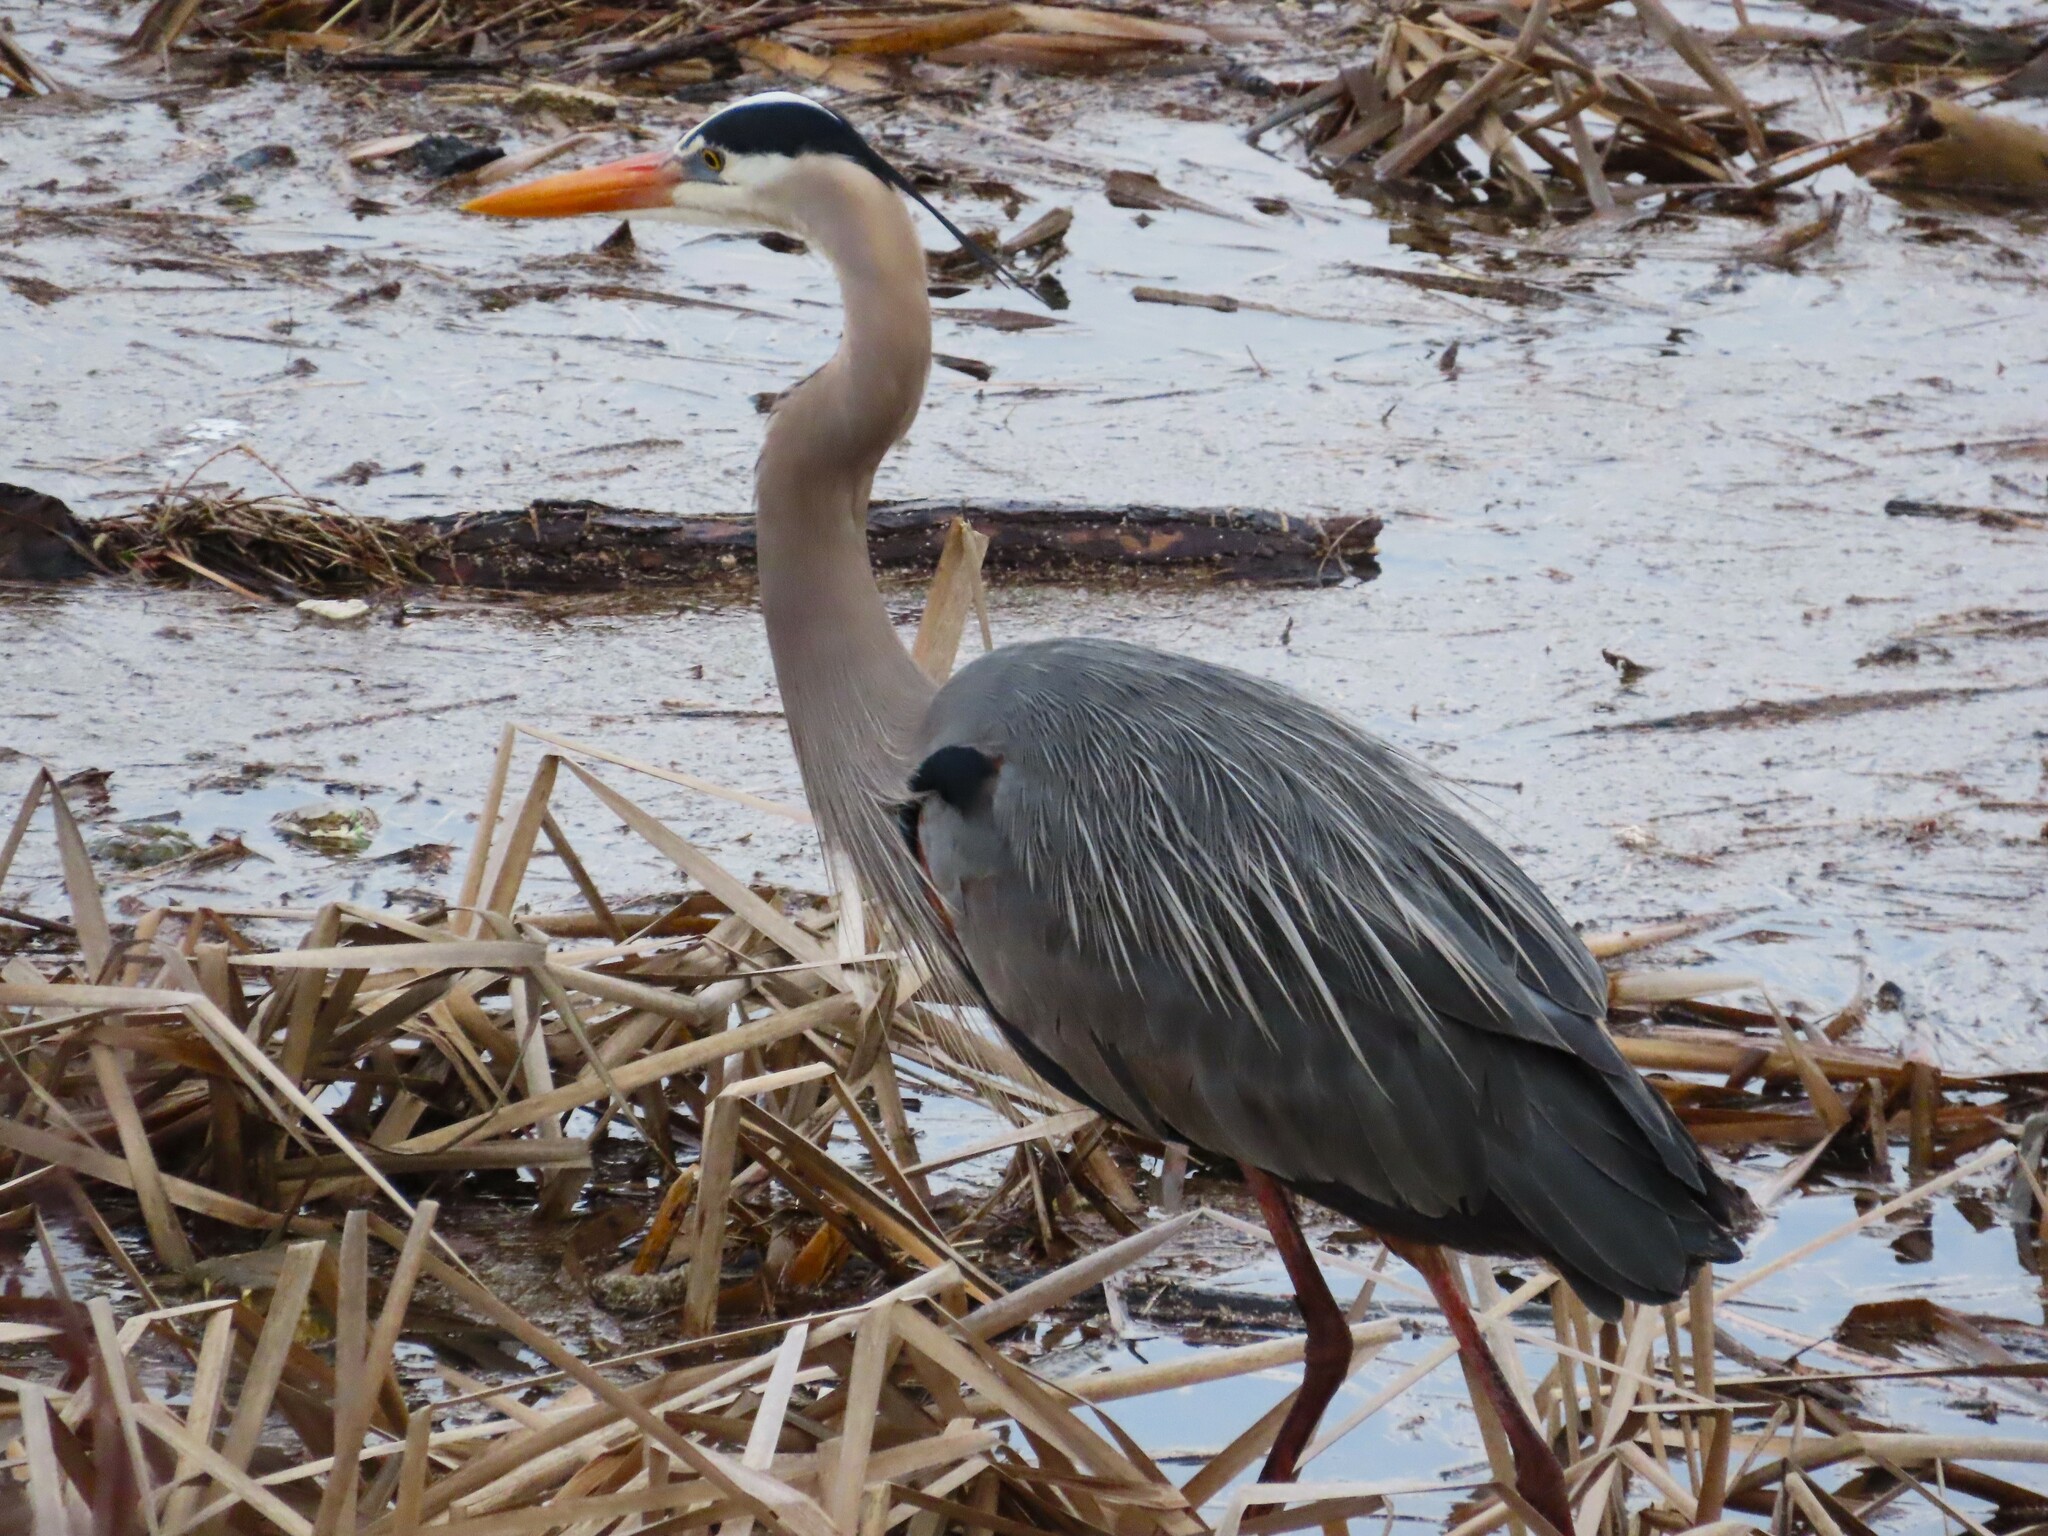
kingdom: Animalia
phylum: Chordata
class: Aves
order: Pelecaniformes
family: Ardeidae
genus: Ardea
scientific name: Ardea herodias
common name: Great blue heron
